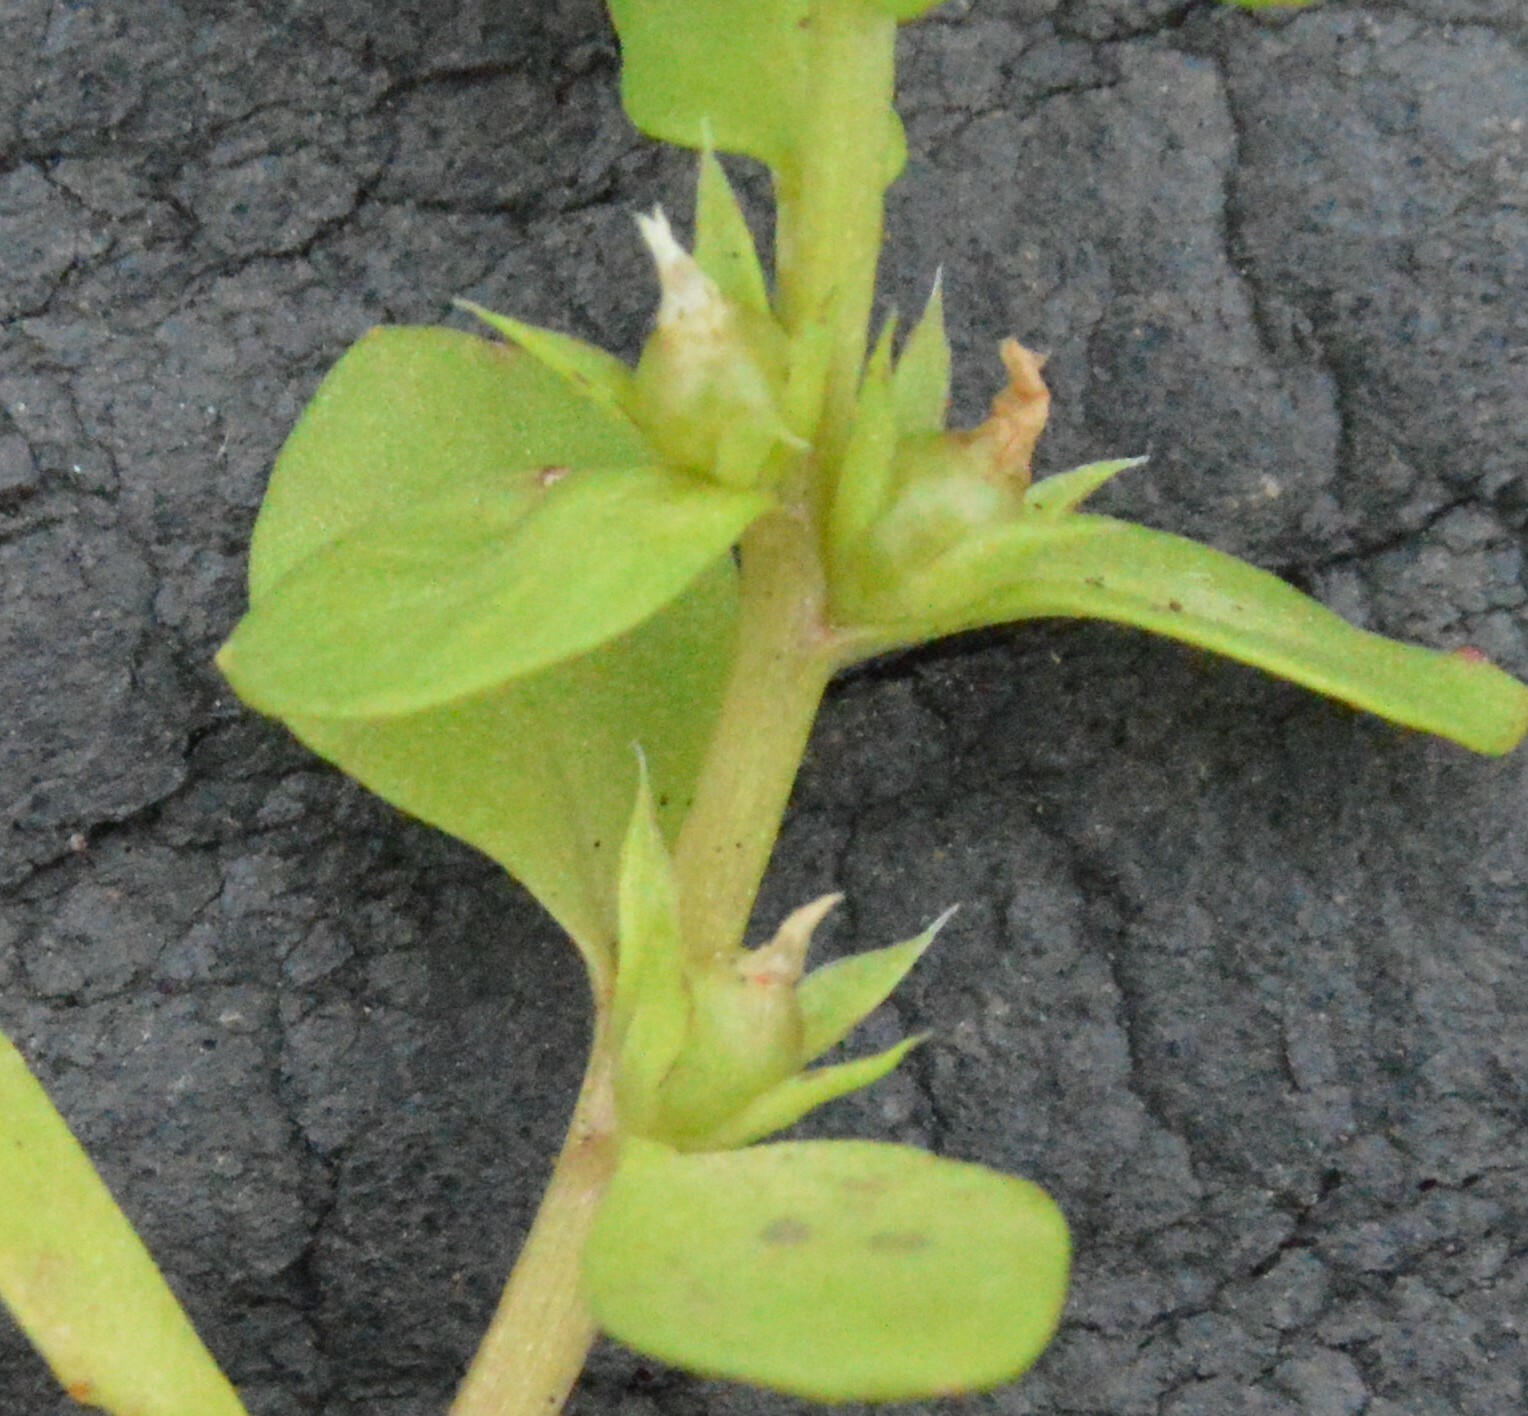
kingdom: Plantae
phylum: Tracheophyta
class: Magnoliopsida
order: Ericales
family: Primulaceae
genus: Lysimachia
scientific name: Lysimachia minima
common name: Chaffweed
